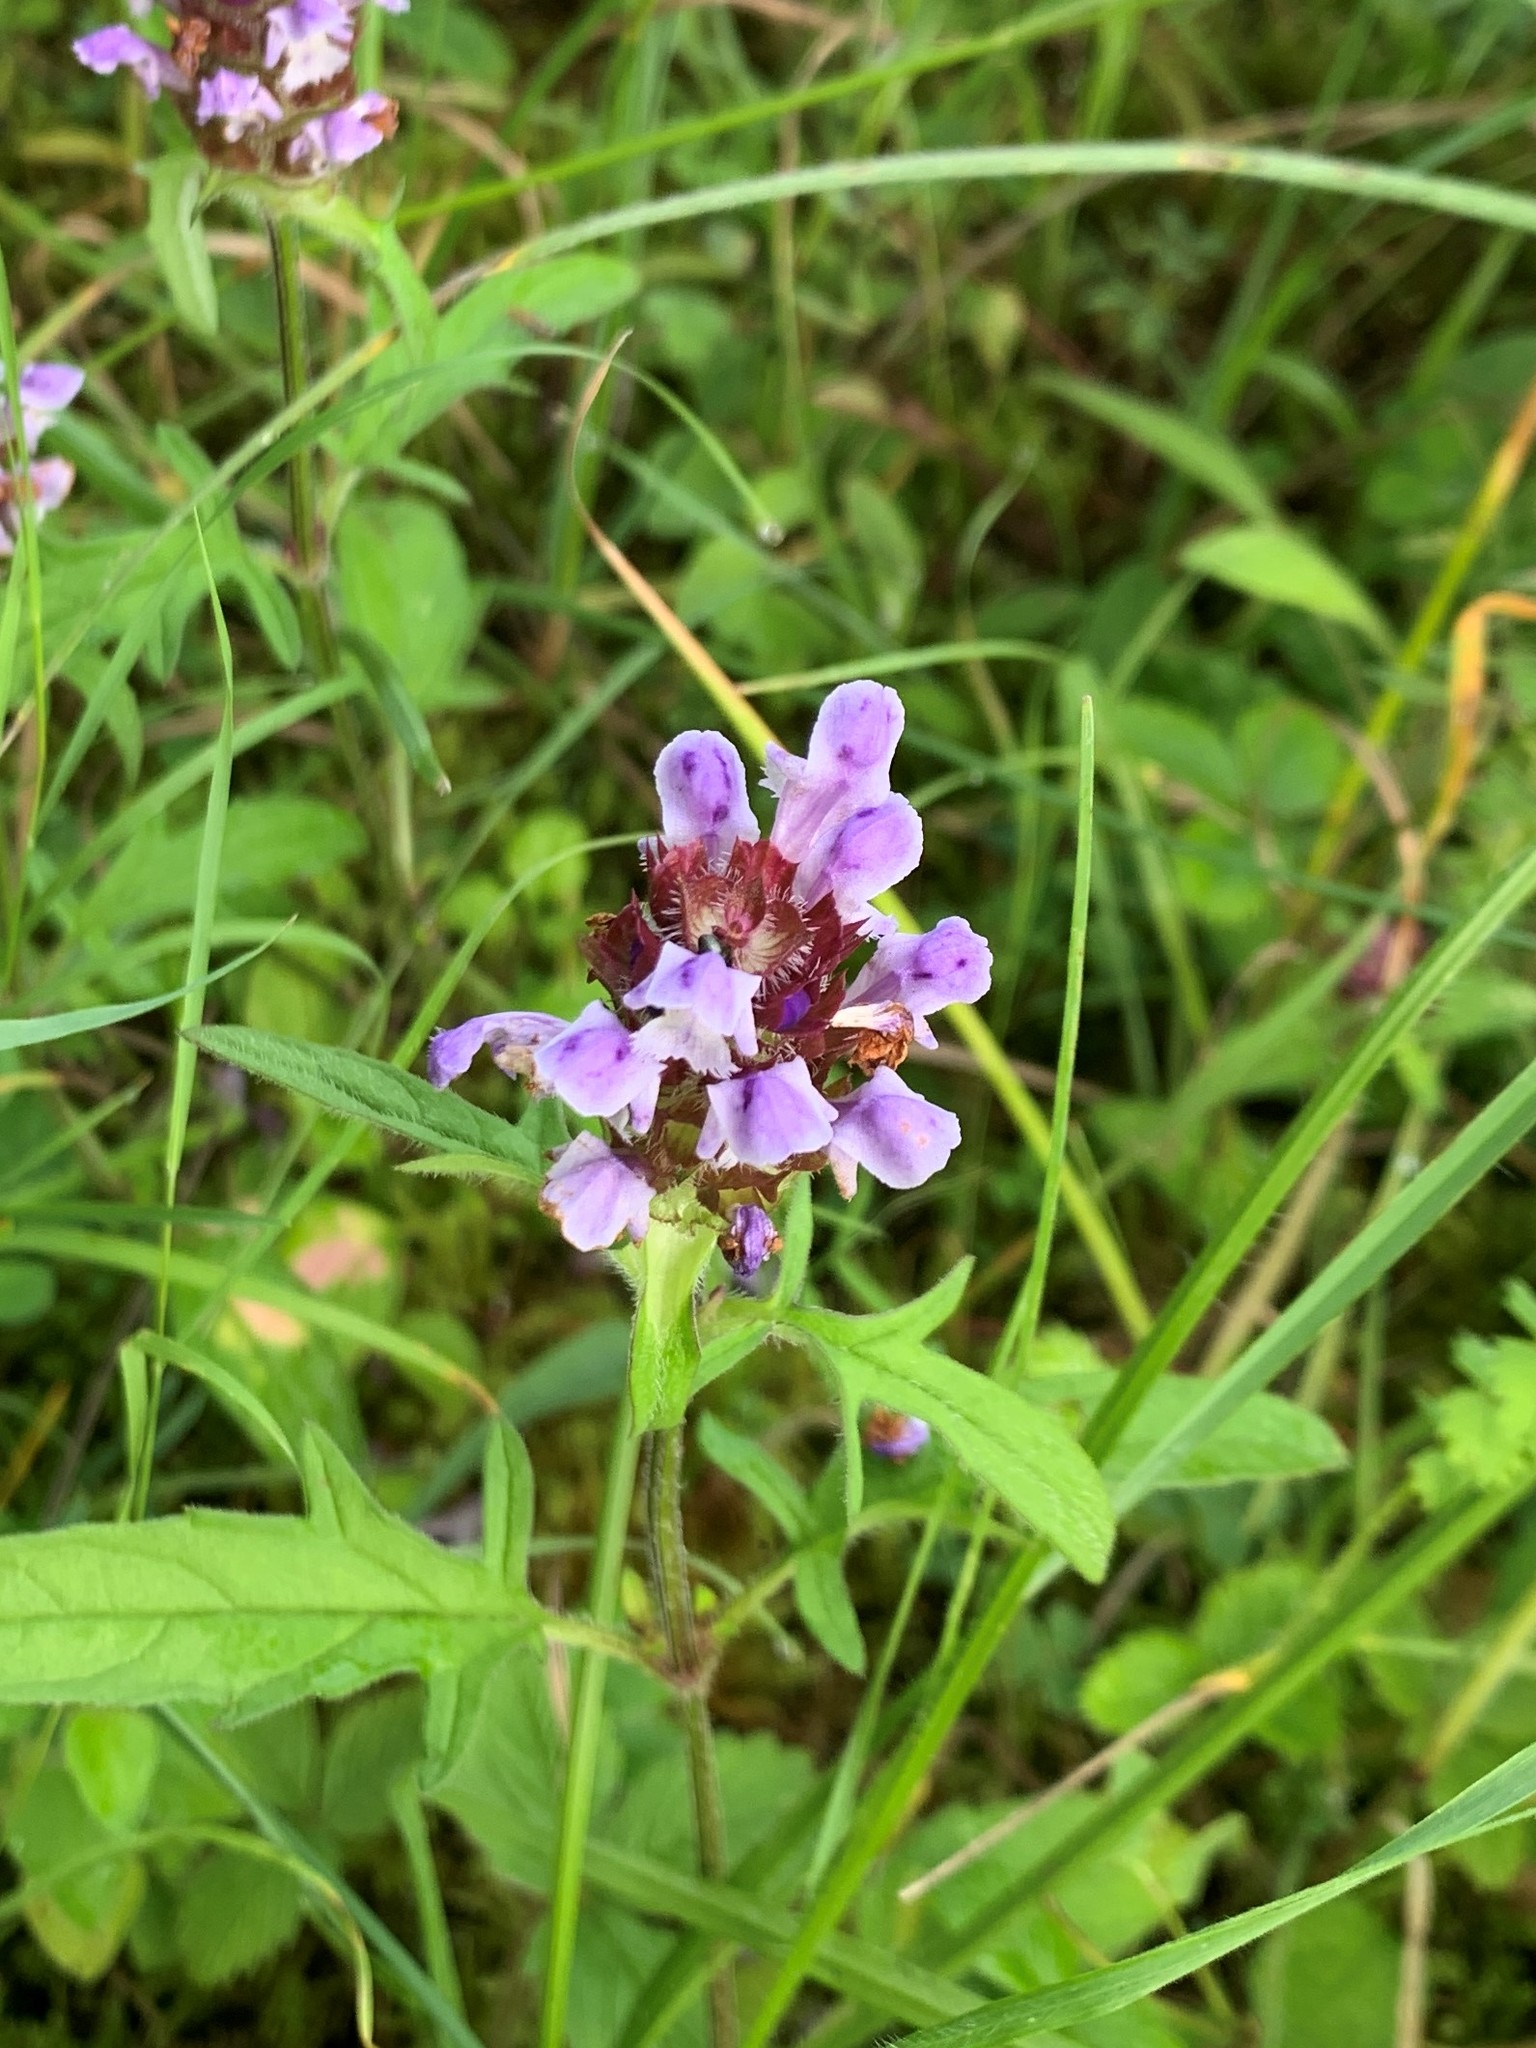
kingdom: Plantae
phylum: Tracheophyta
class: Magnoliopsida
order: Lamiales
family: Lamiaceae
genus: Prunella
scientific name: Prunella vulgaris
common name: Heal-all
